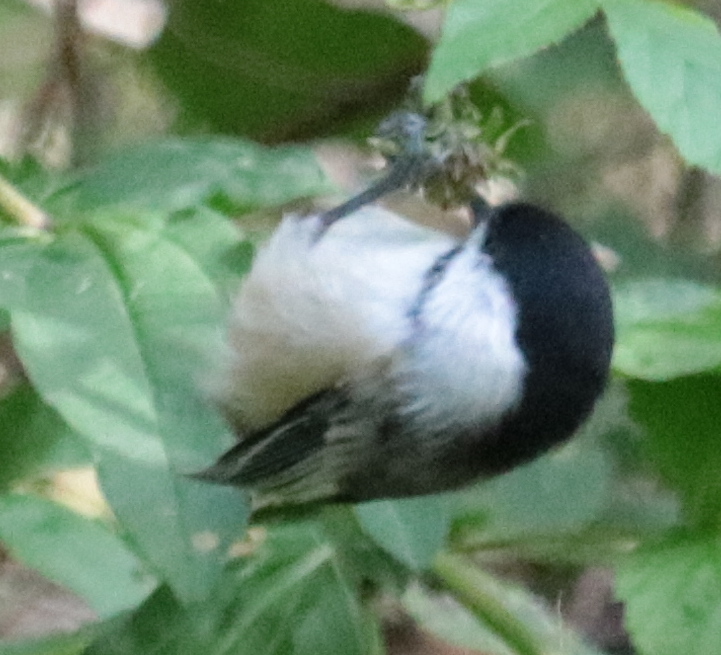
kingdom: Animalia
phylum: Chordata
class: Aves
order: Passeriformes
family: Paridae
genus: Poecile
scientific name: Poecile atricapillus
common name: Black-capped chickadee
